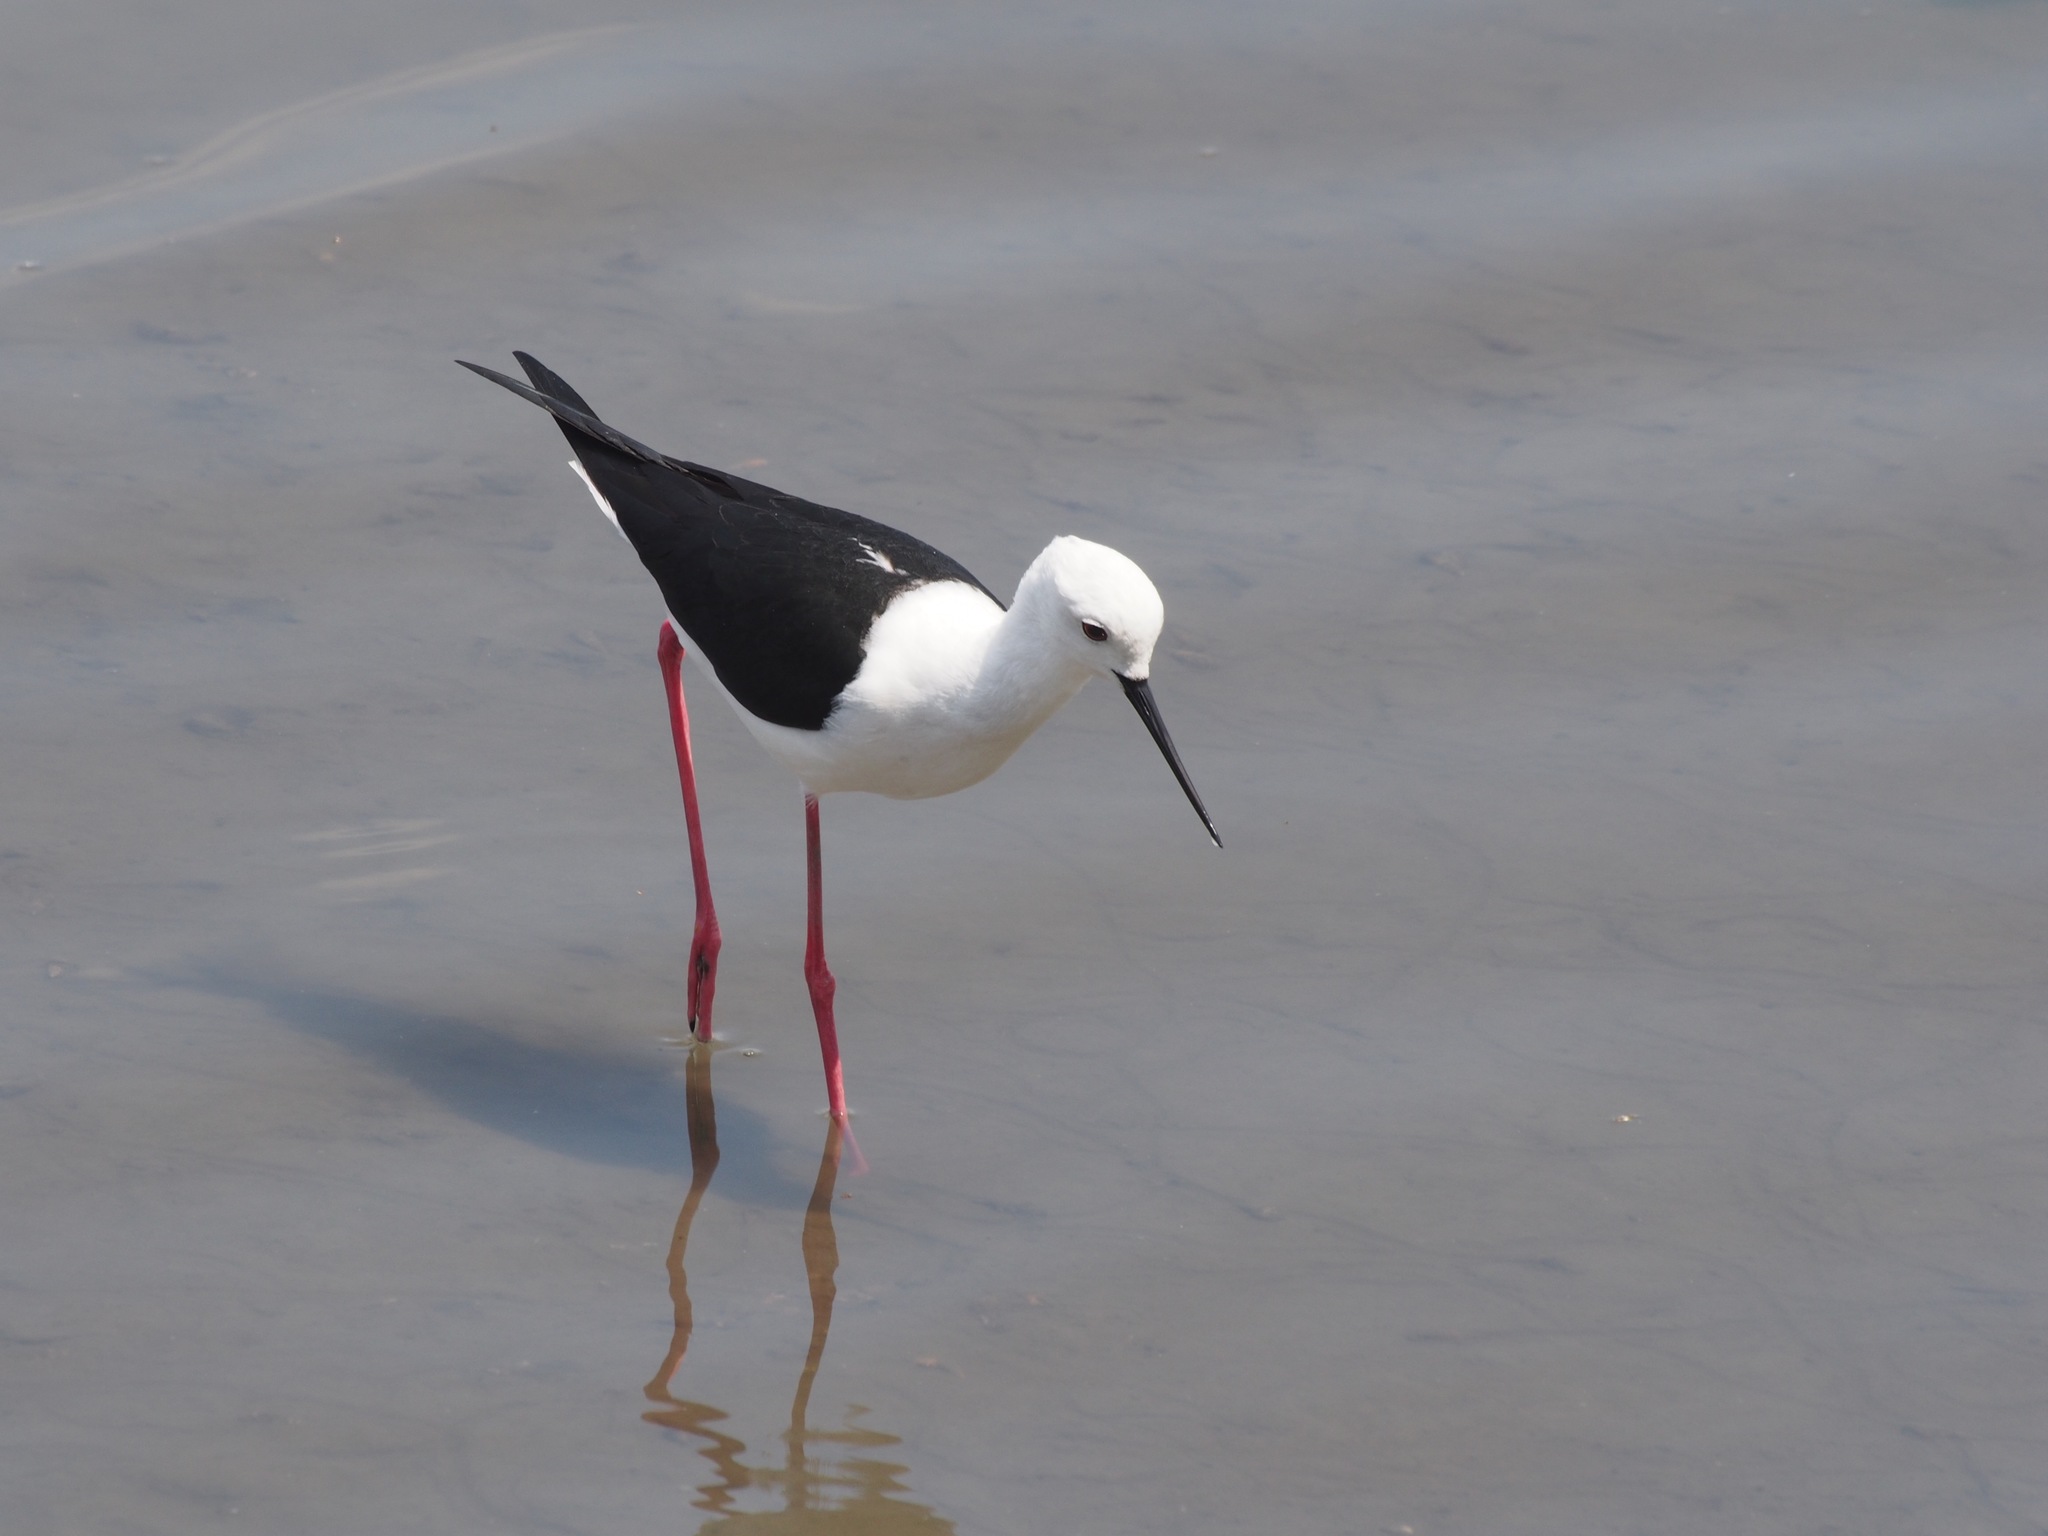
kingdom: Animalia
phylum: Chordata
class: Aves
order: Charadriiformes
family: Recurvirostridae
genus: Himantopus
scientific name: Himantopus himantopus
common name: Black-winged stilt
